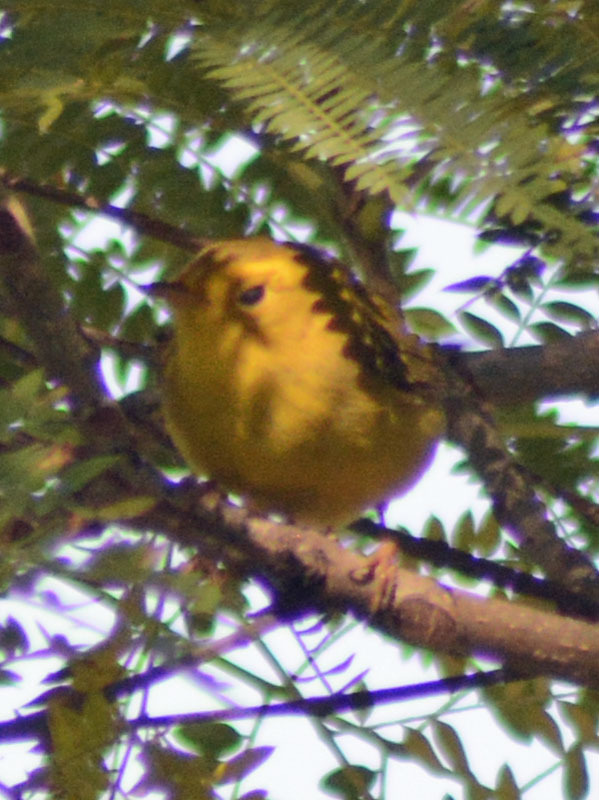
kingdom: Animalia
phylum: Chordata
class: Aves
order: Passeriformes
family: Parulidae
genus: Cardellina
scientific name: Cardellina pusilla
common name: Wilson's warbler
